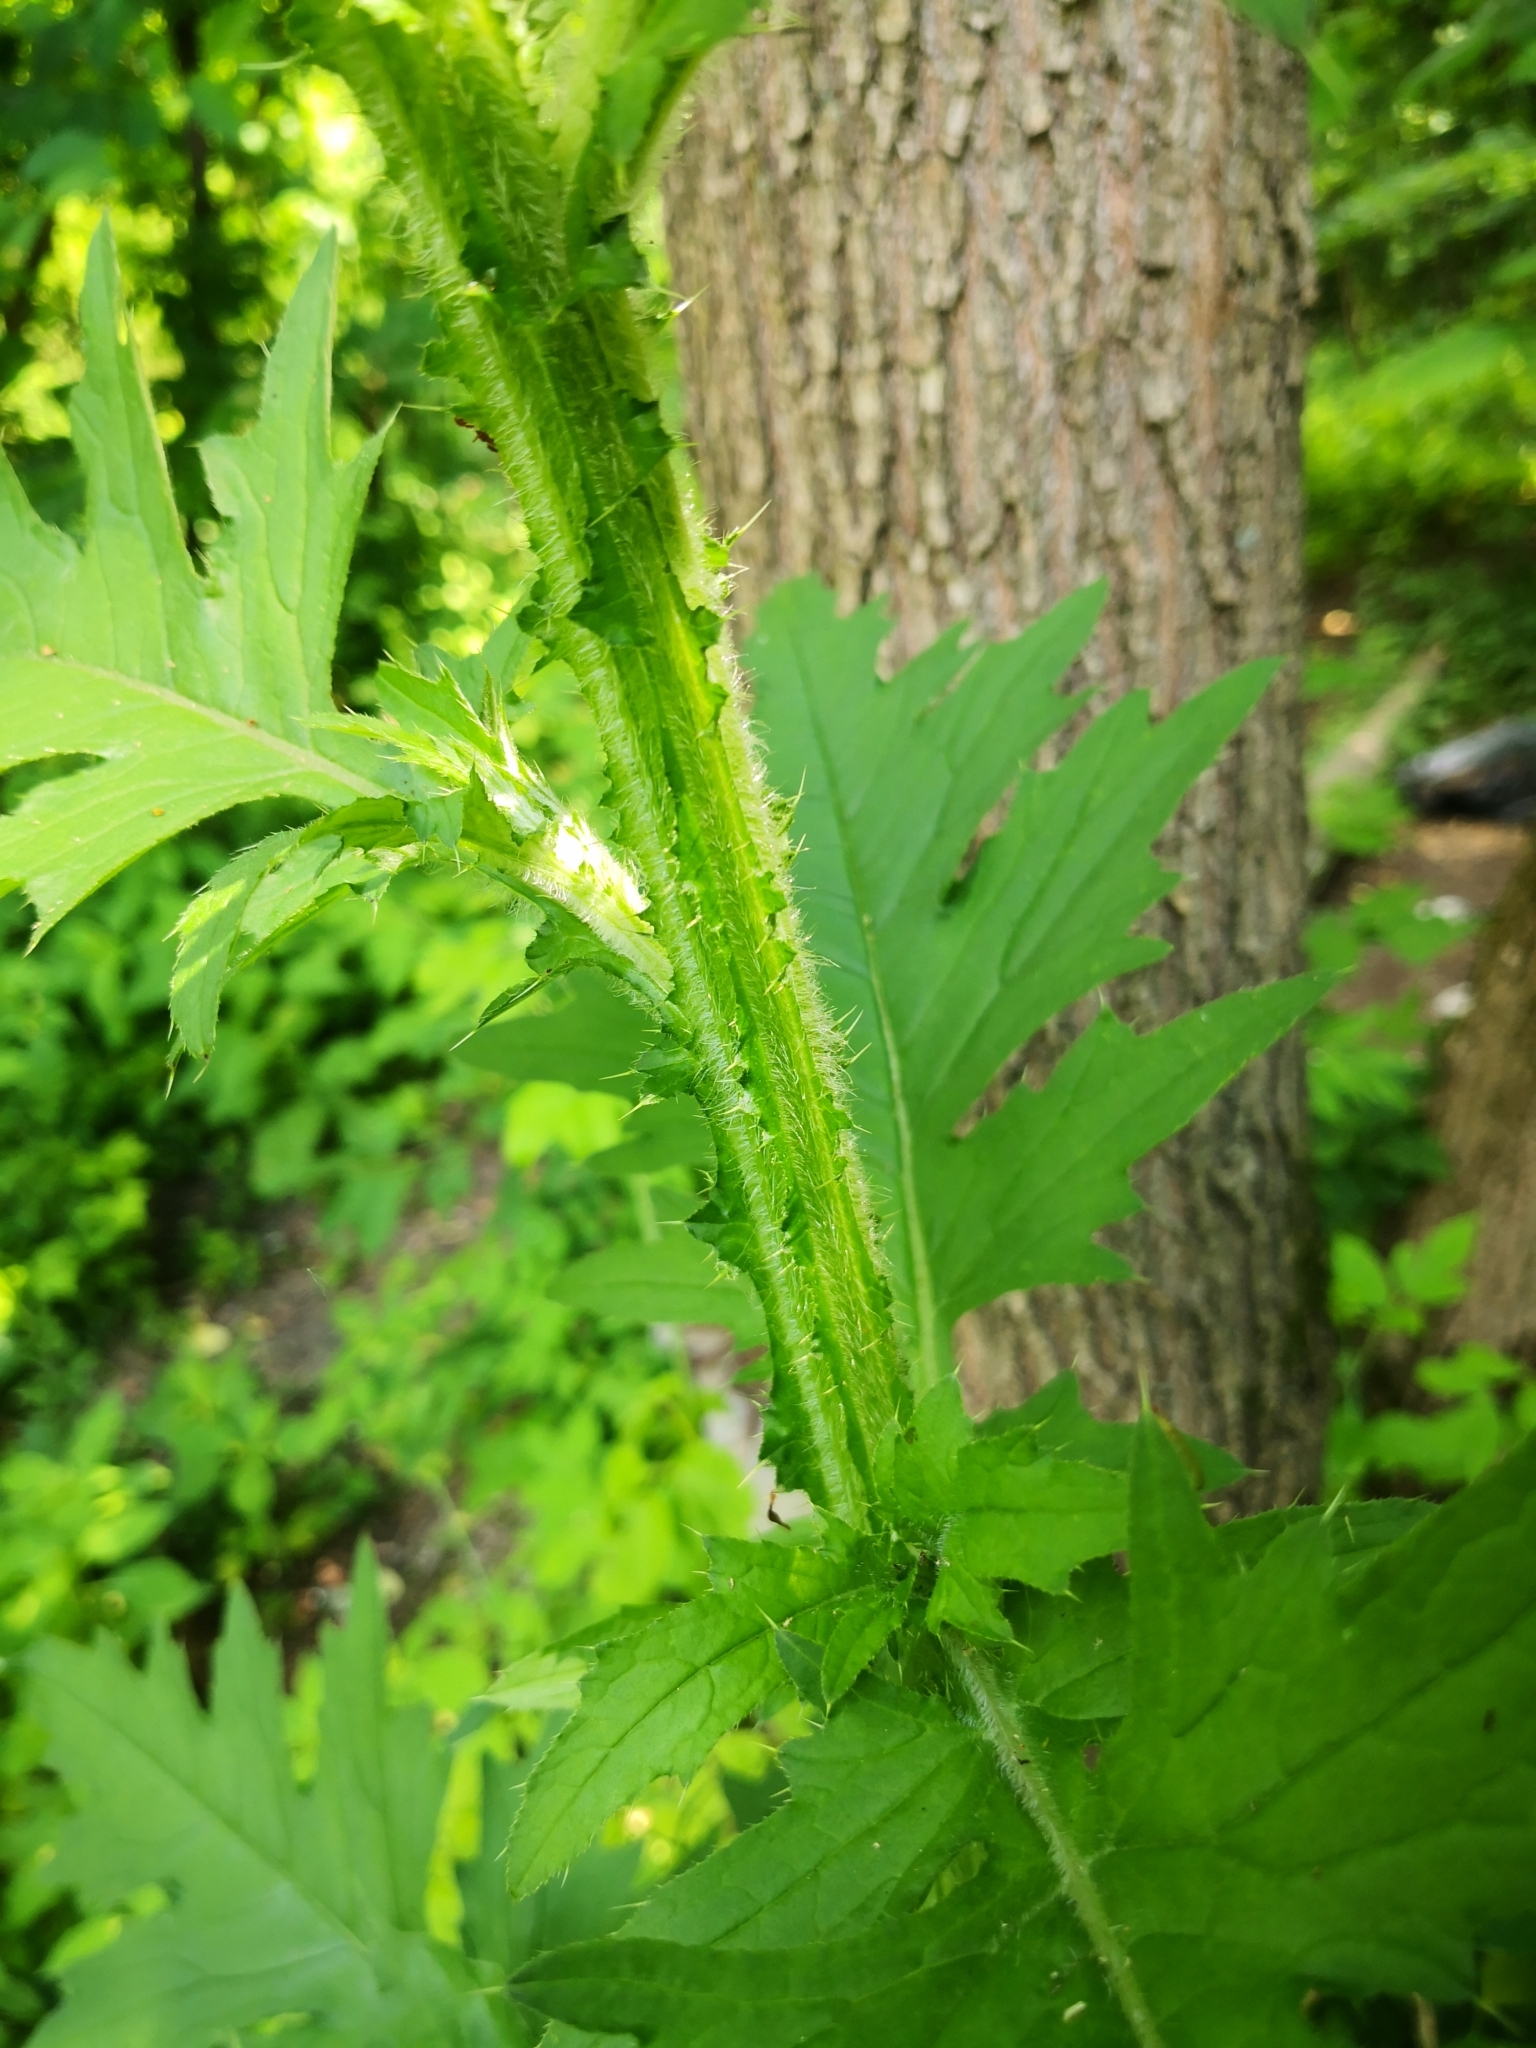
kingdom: Plantae
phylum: Tracheophyta
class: Magnoliopsida
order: Asterales
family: Asteraceae
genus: Carduus
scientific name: Carduus crispus
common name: Welted thistle
